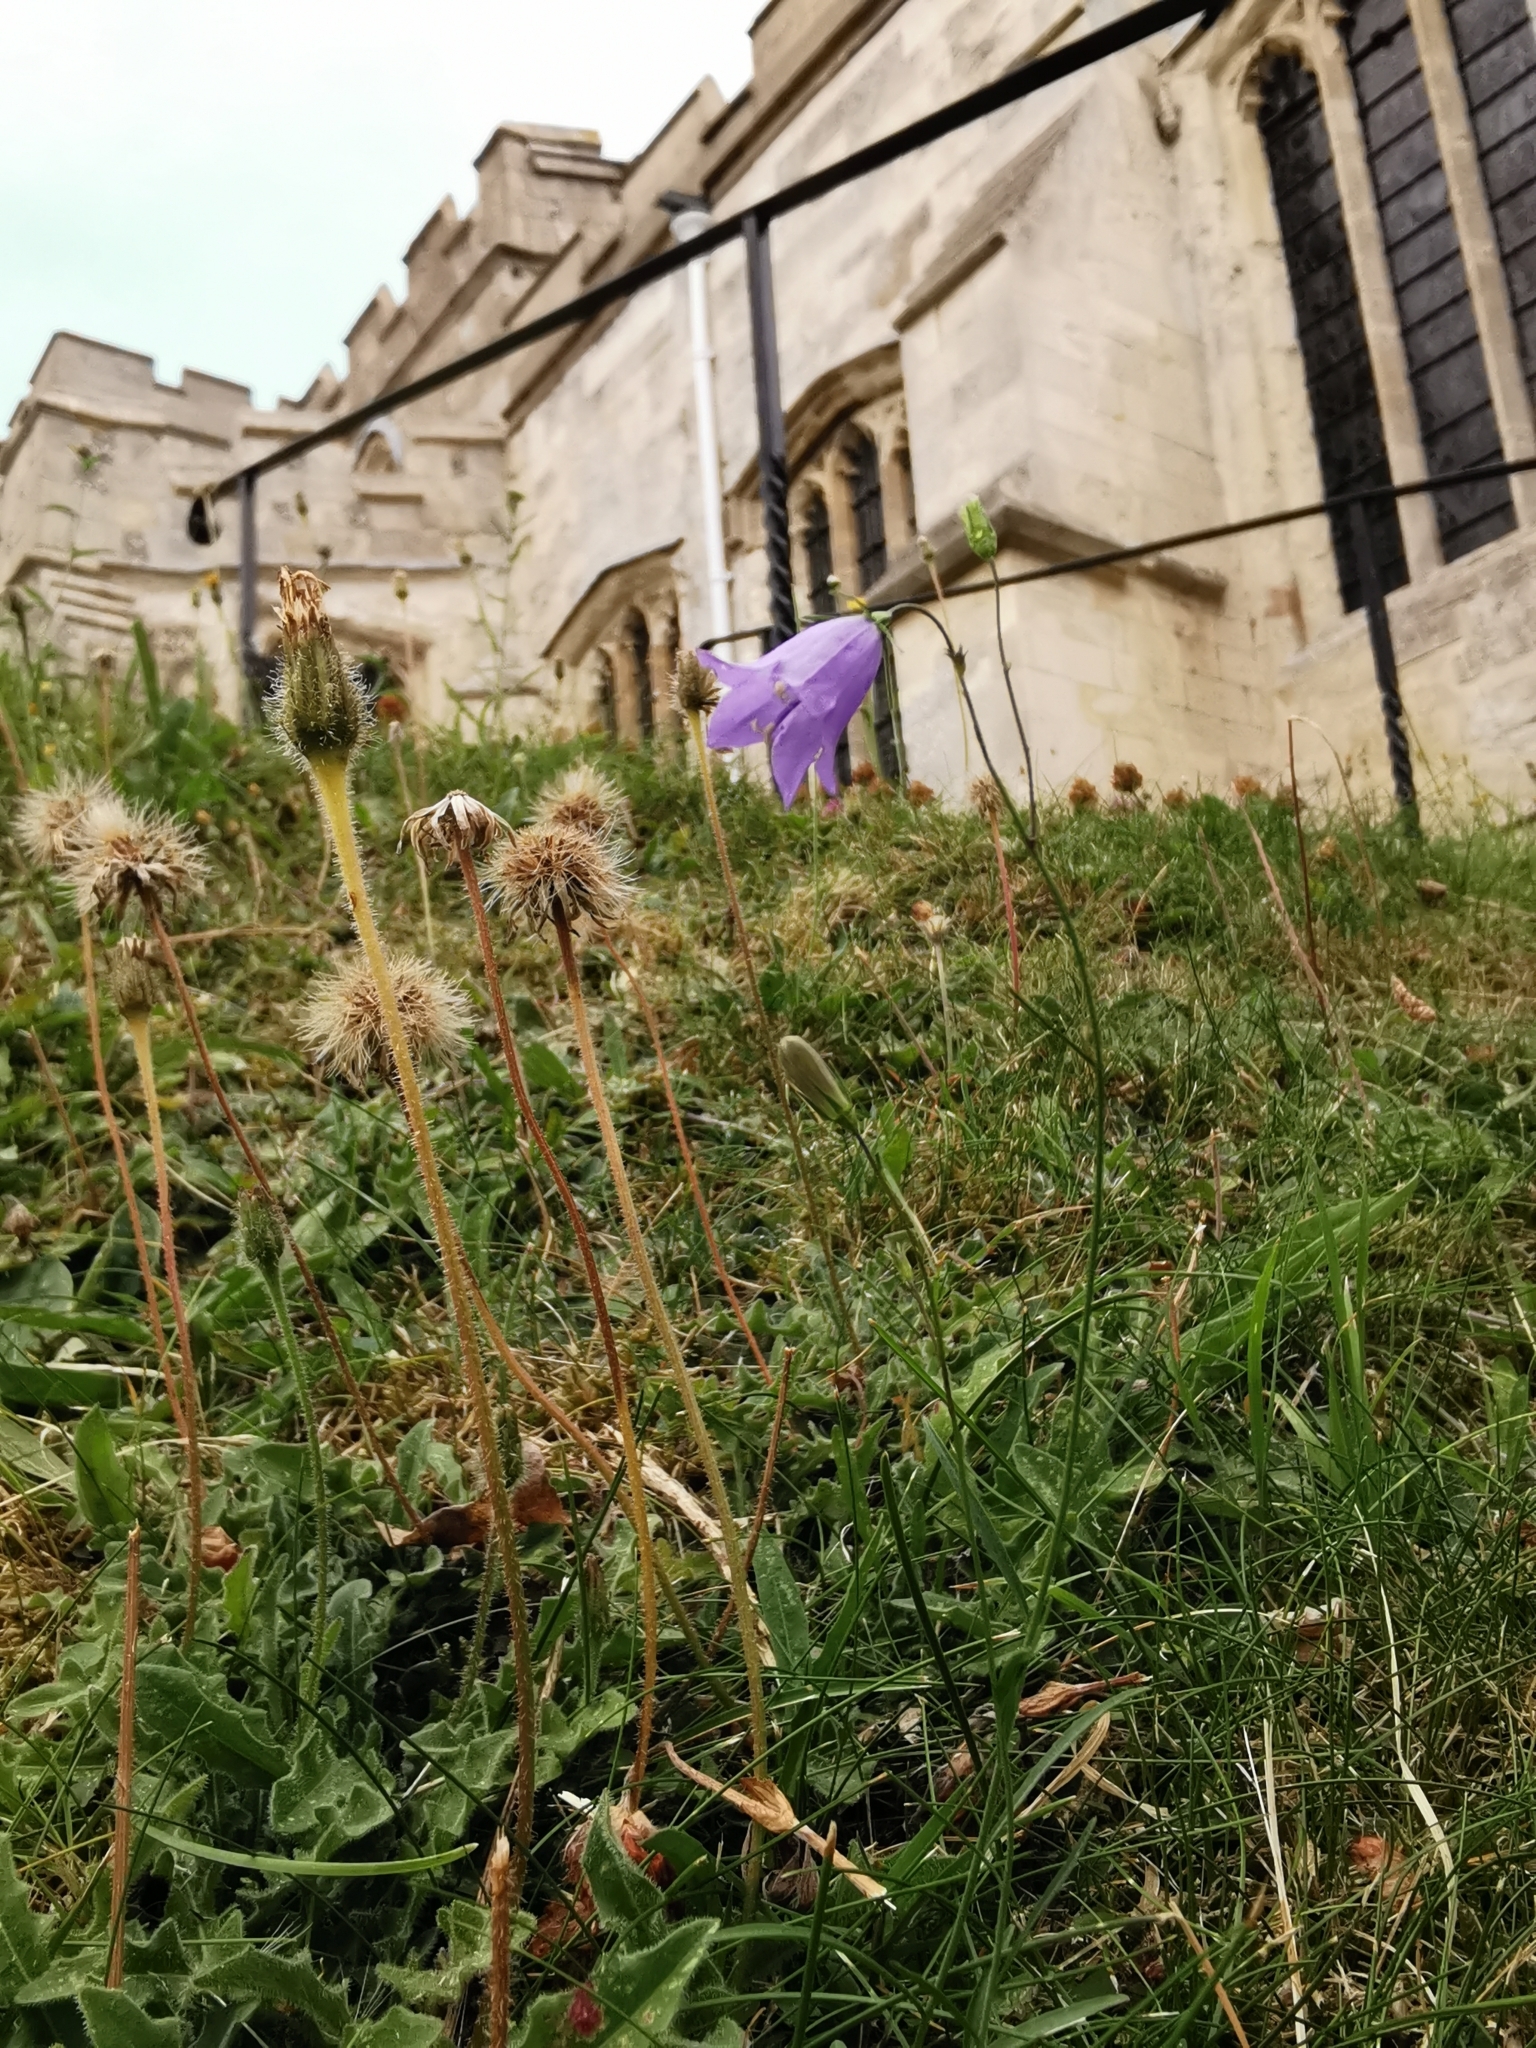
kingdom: Plantae
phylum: Tracheophyta
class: Magnoliopsida
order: Asterales
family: Campanulaceae
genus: Campanula
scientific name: Campanula rotundifolia
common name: Harebell
